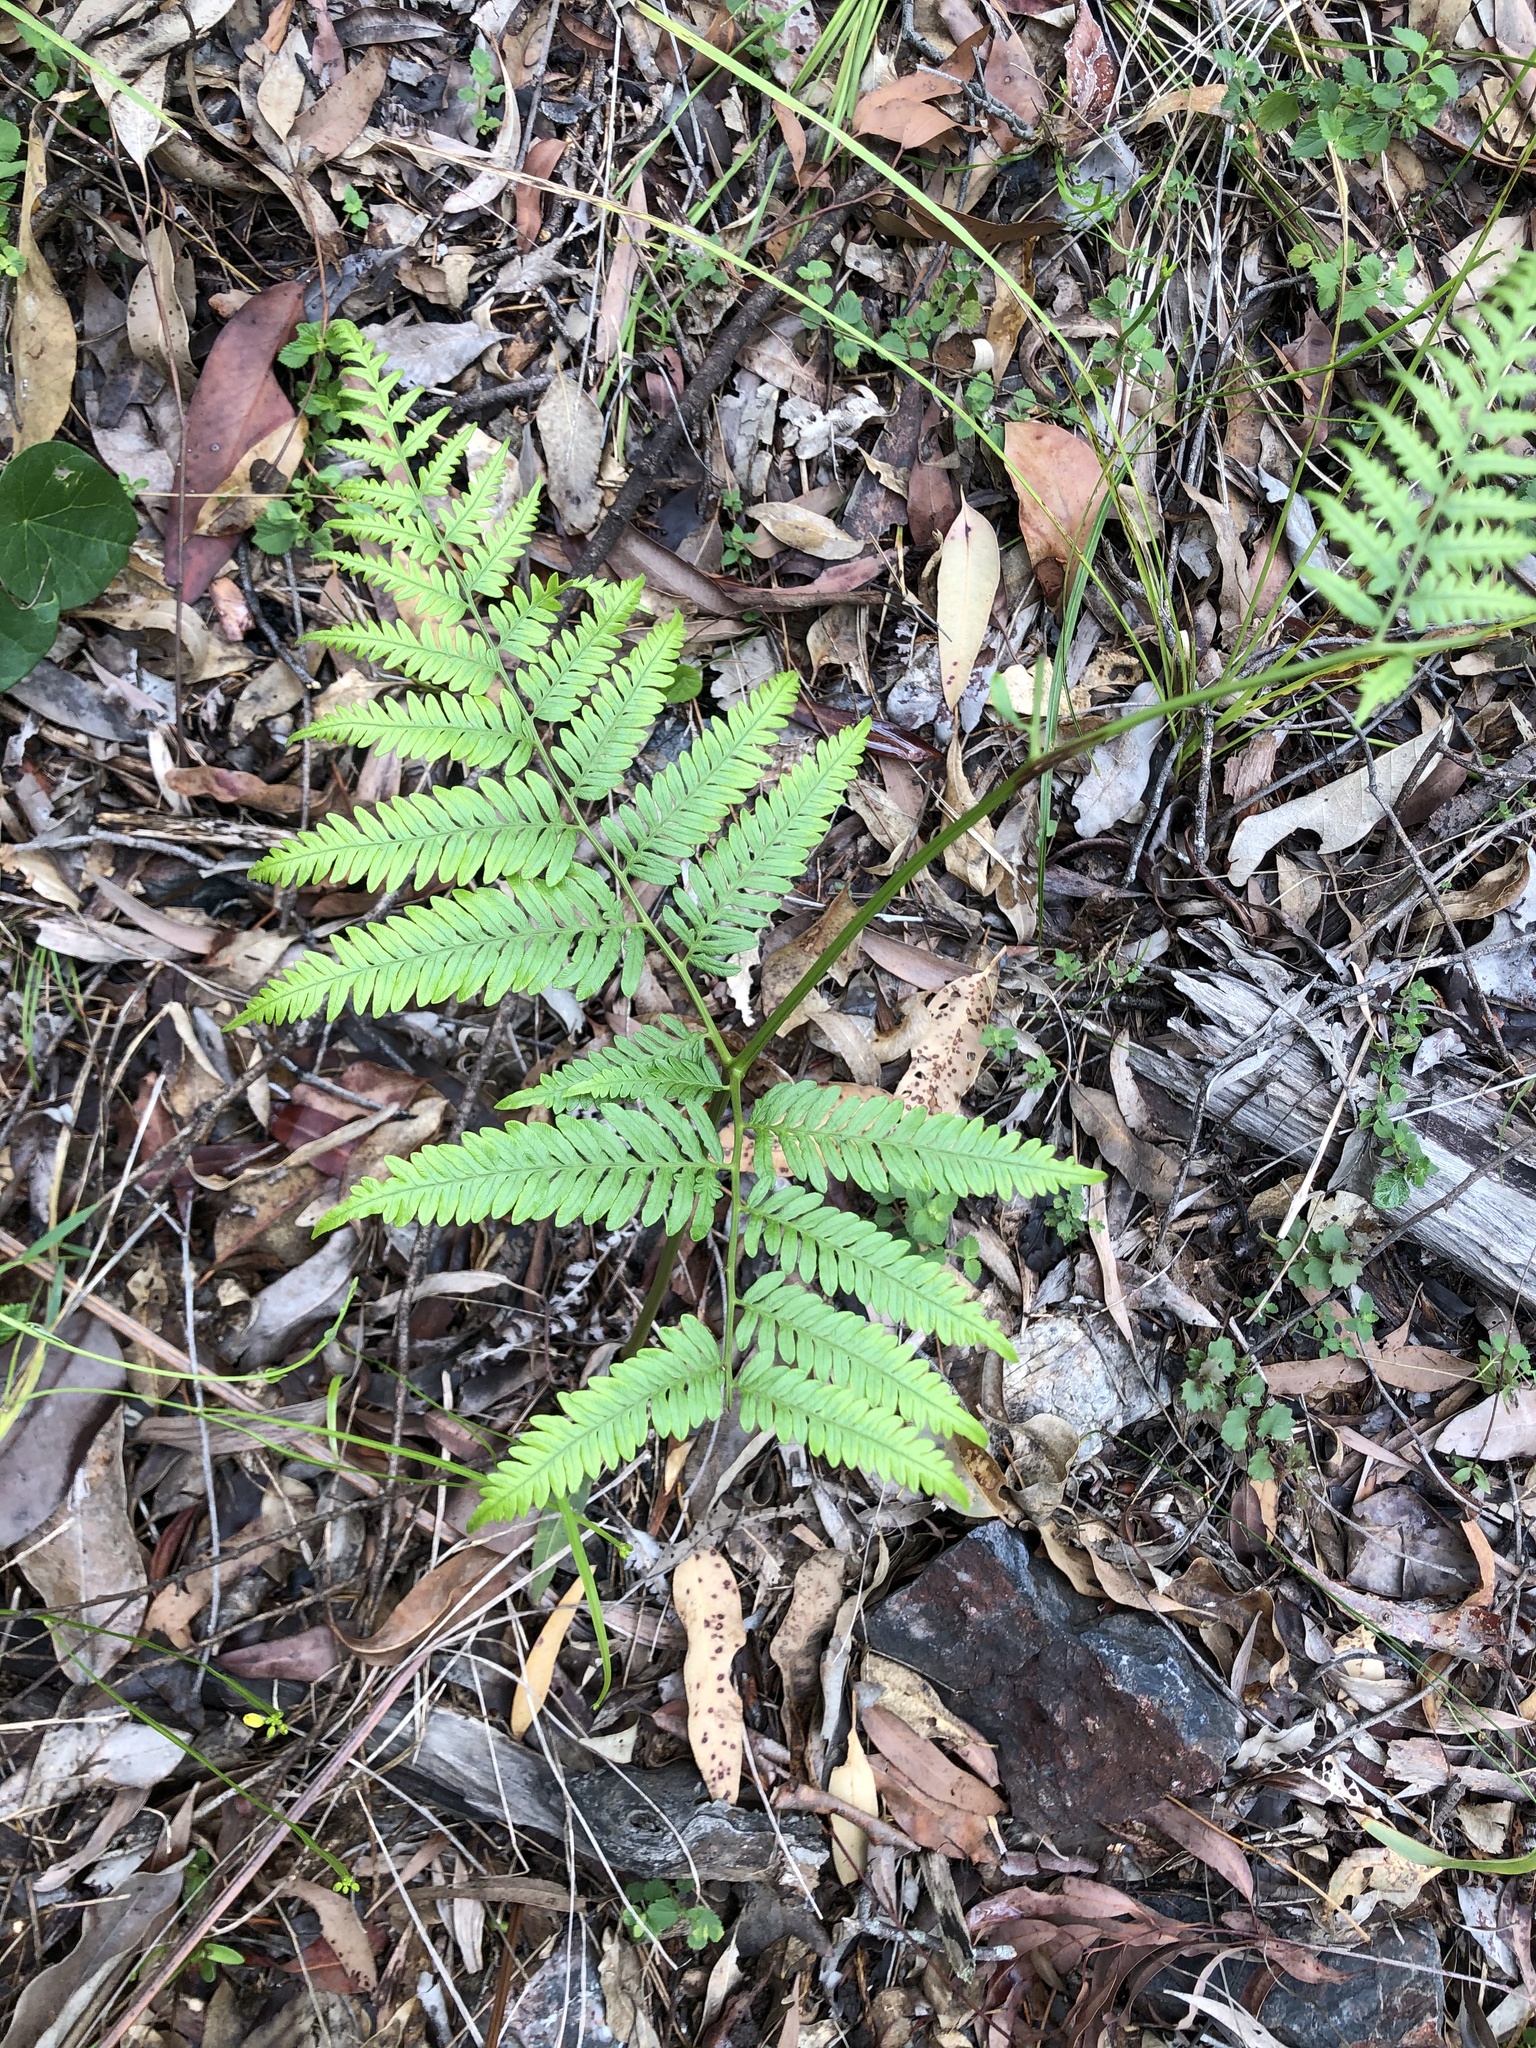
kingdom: Plantae
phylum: Tracheophyta
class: Polypodiopsida
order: Polypodiales
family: Dennstaedtiaceae
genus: Pteridium
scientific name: Pteridium esculentum
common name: Bracken fern
